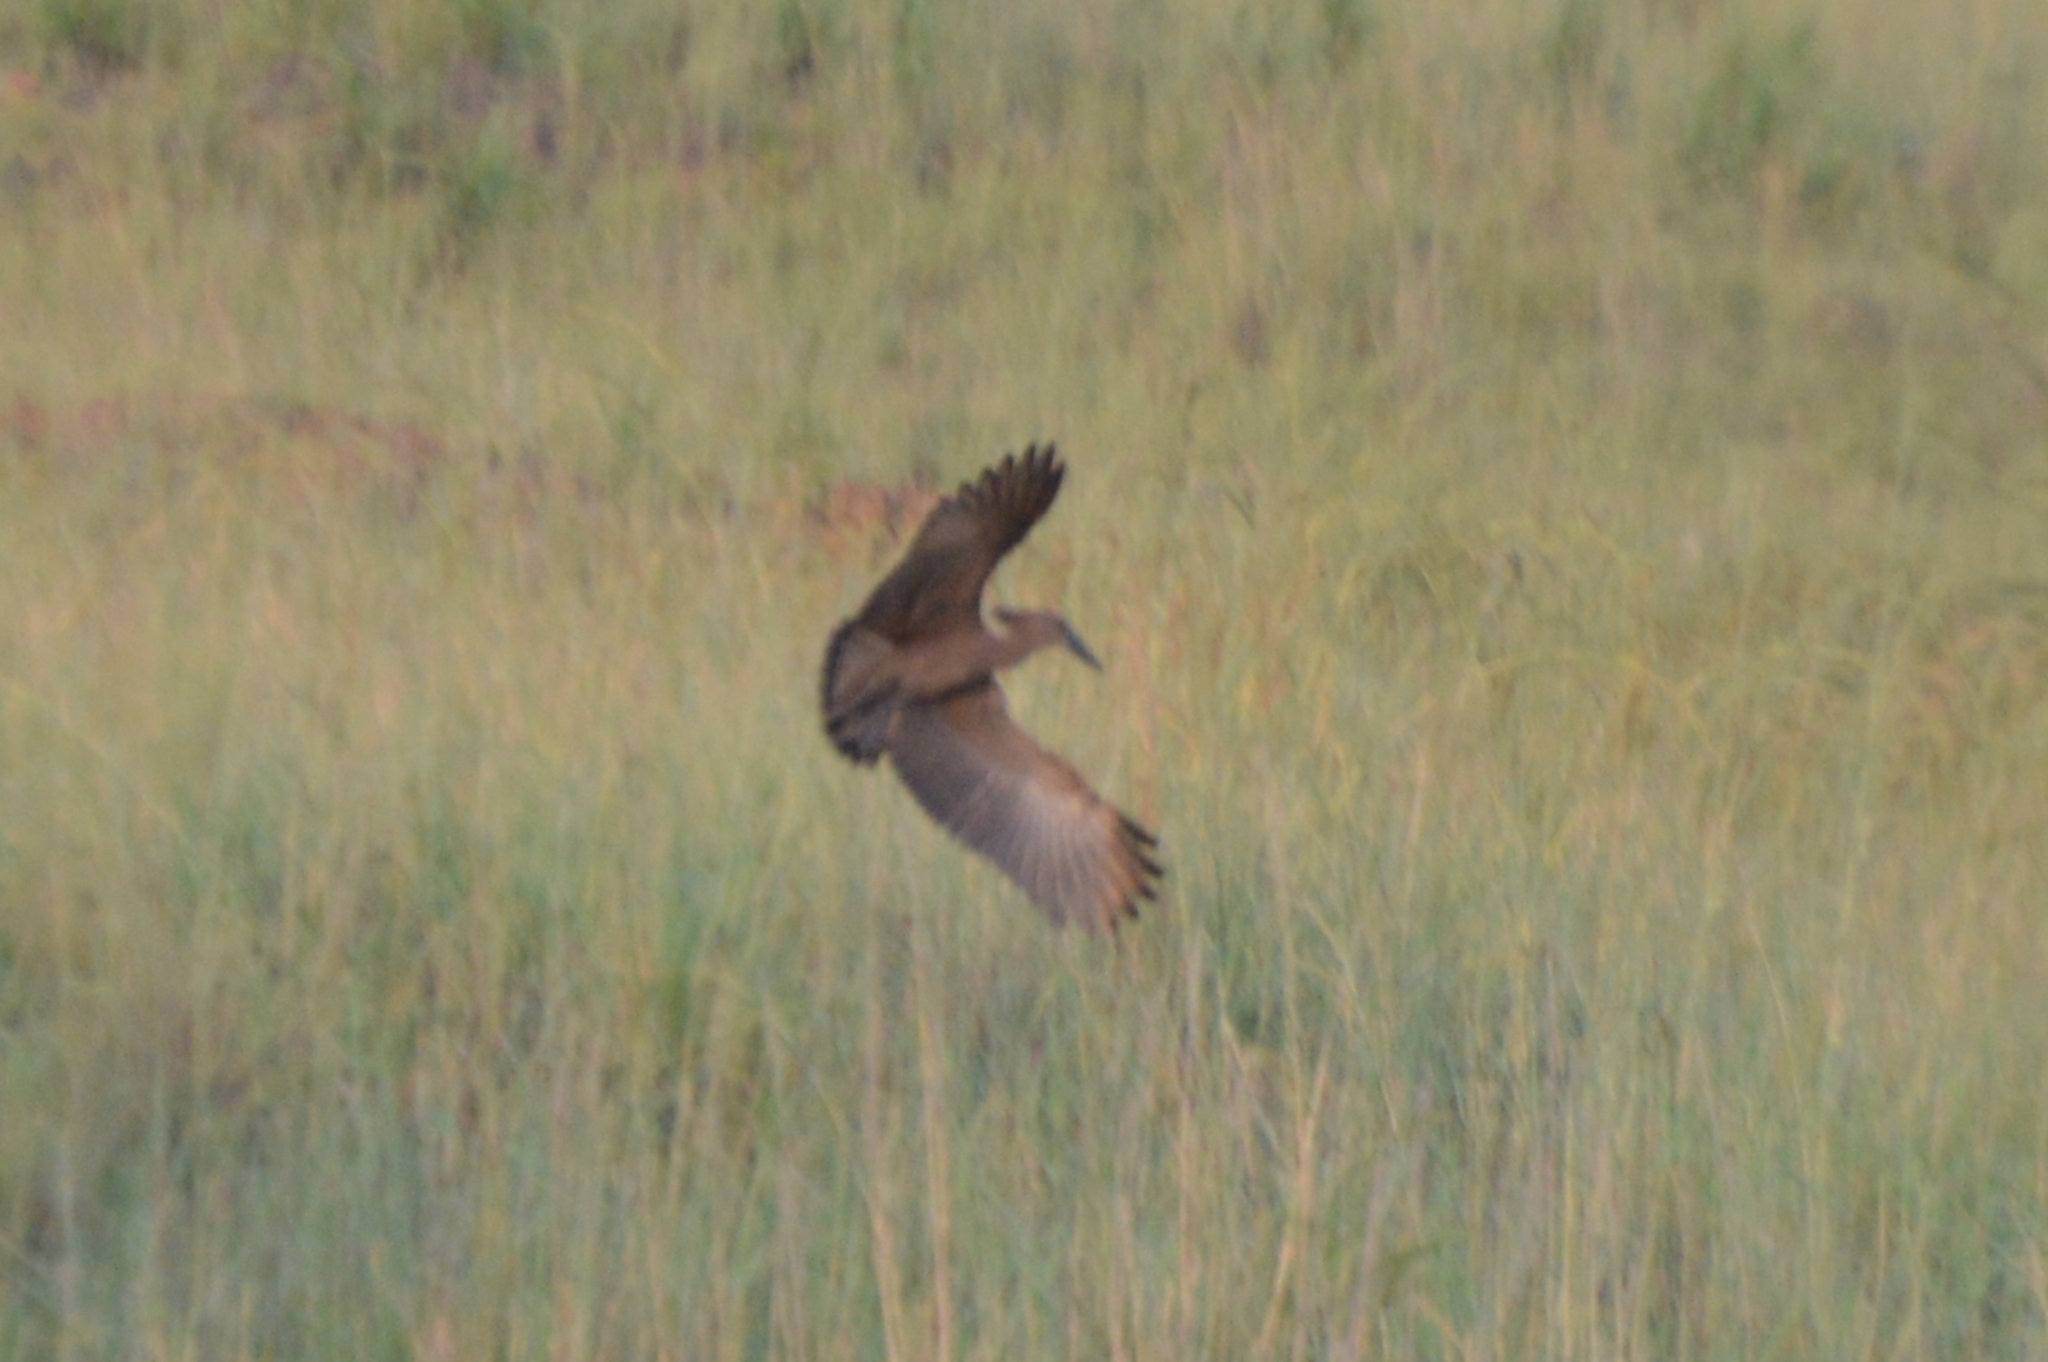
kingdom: Animalia
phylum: Chordata
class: Aves
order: Pelecaniformes
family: Scopidae
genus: Scopus
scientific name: Scopus umbretta
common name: Hamerkop
